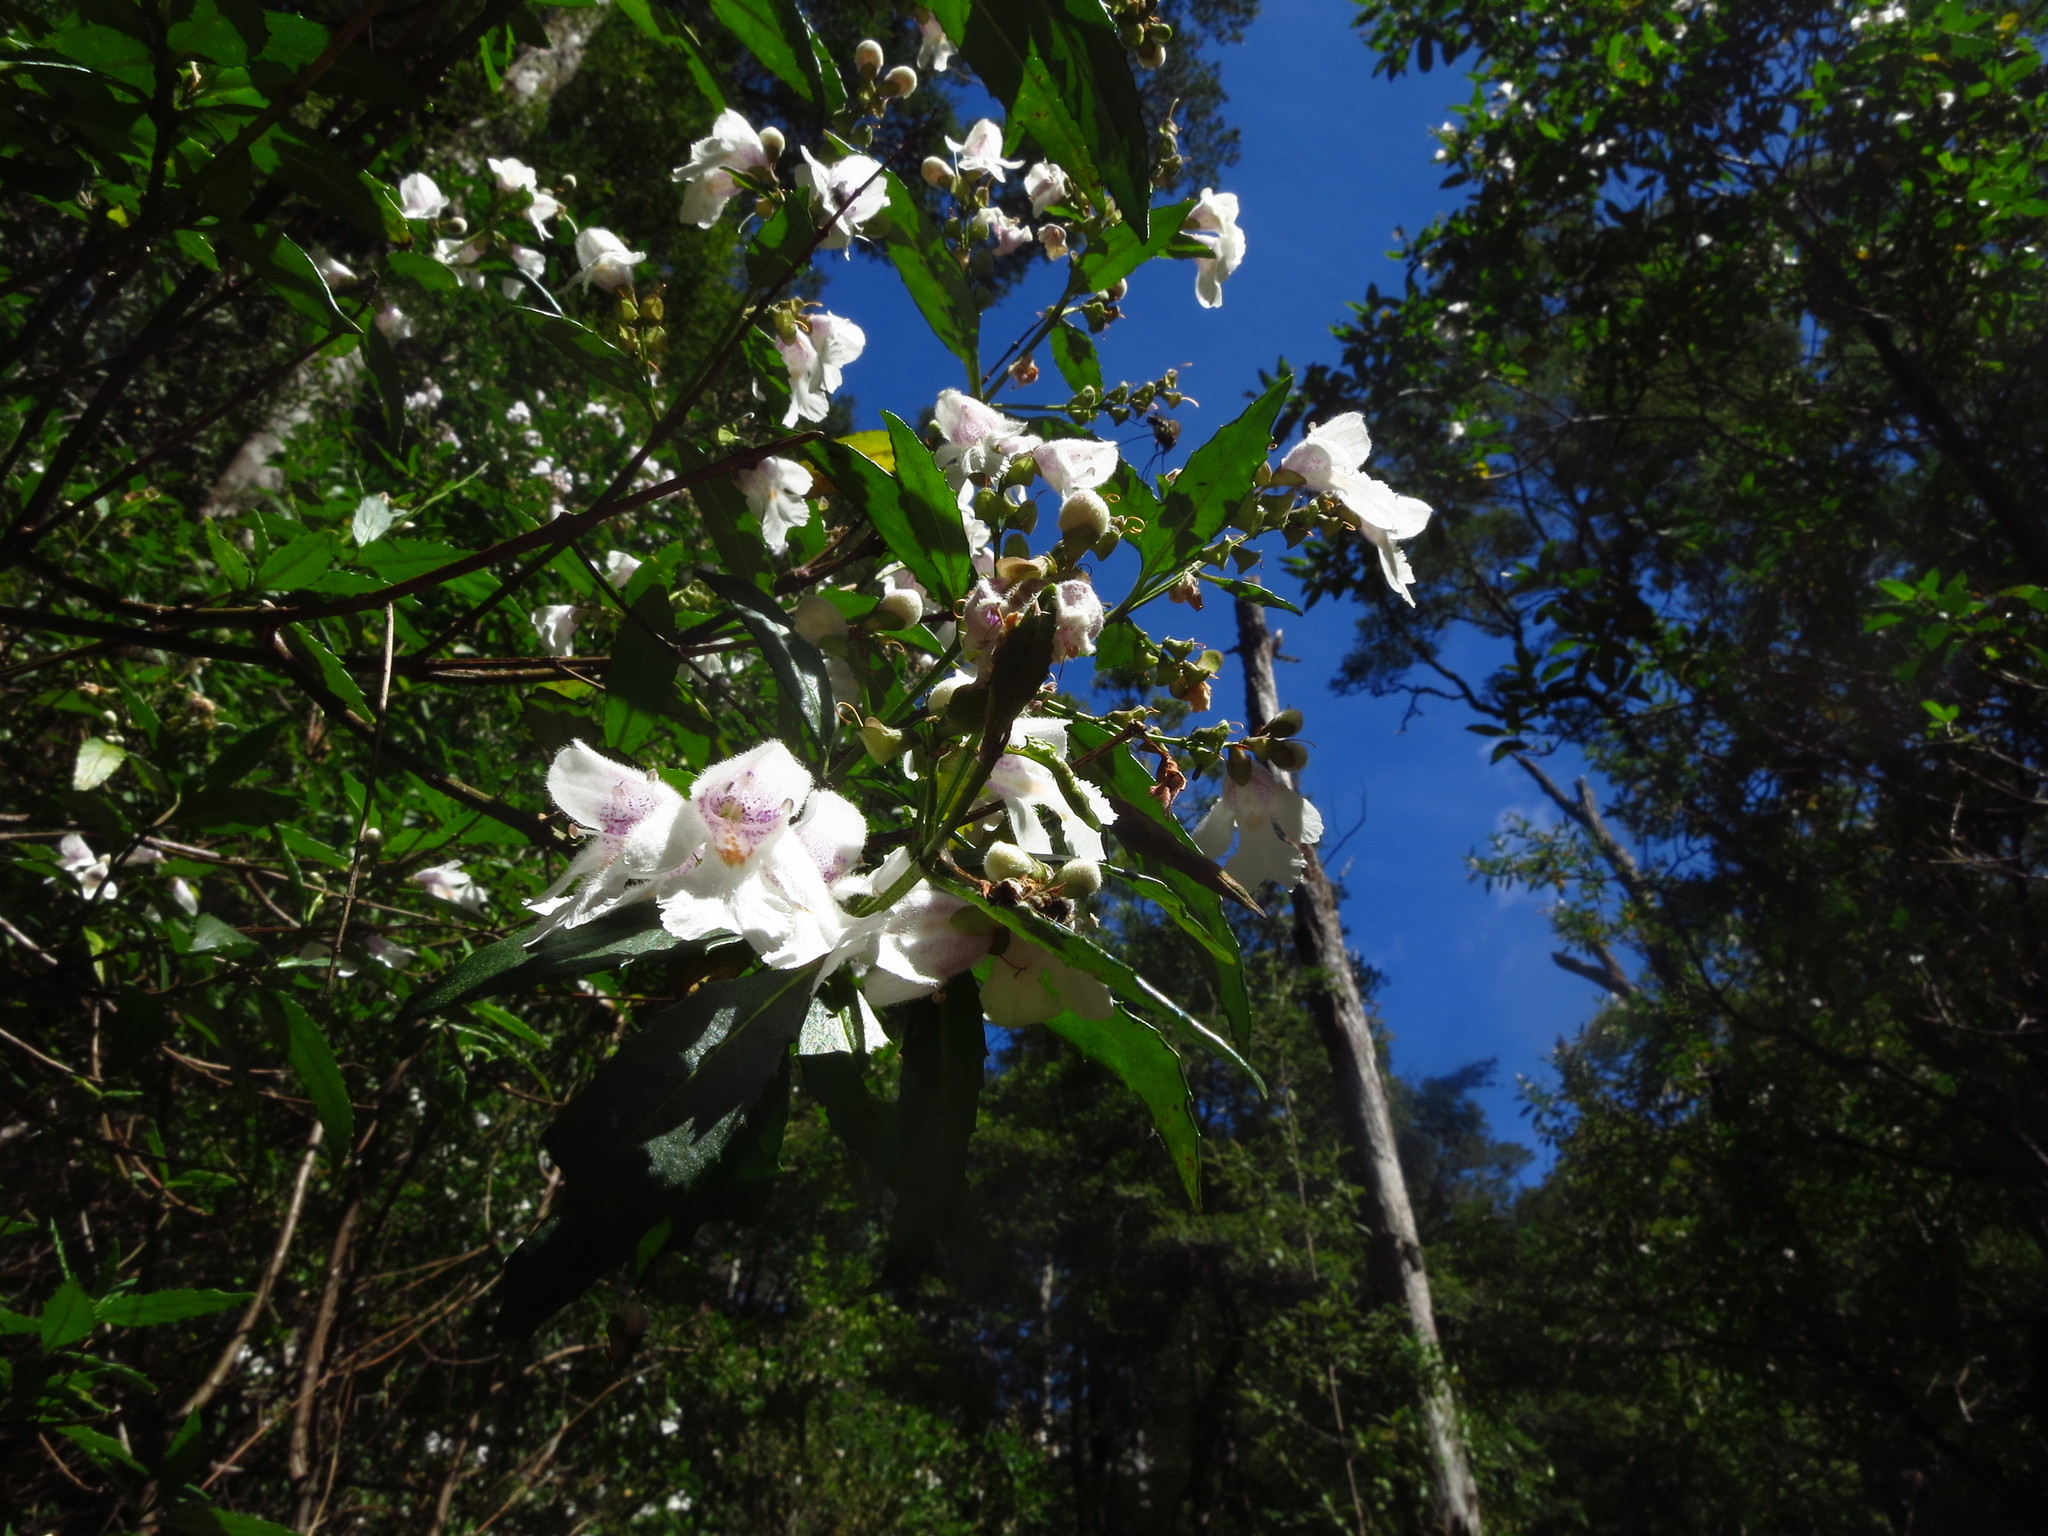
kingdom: Plantae
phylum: Tracheophyta
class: Magnoliopsida
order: Lamiales
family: Lamiaceae
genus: Prostanthera
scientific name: Prostanthera lasianthos
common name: Mountain-lilac
